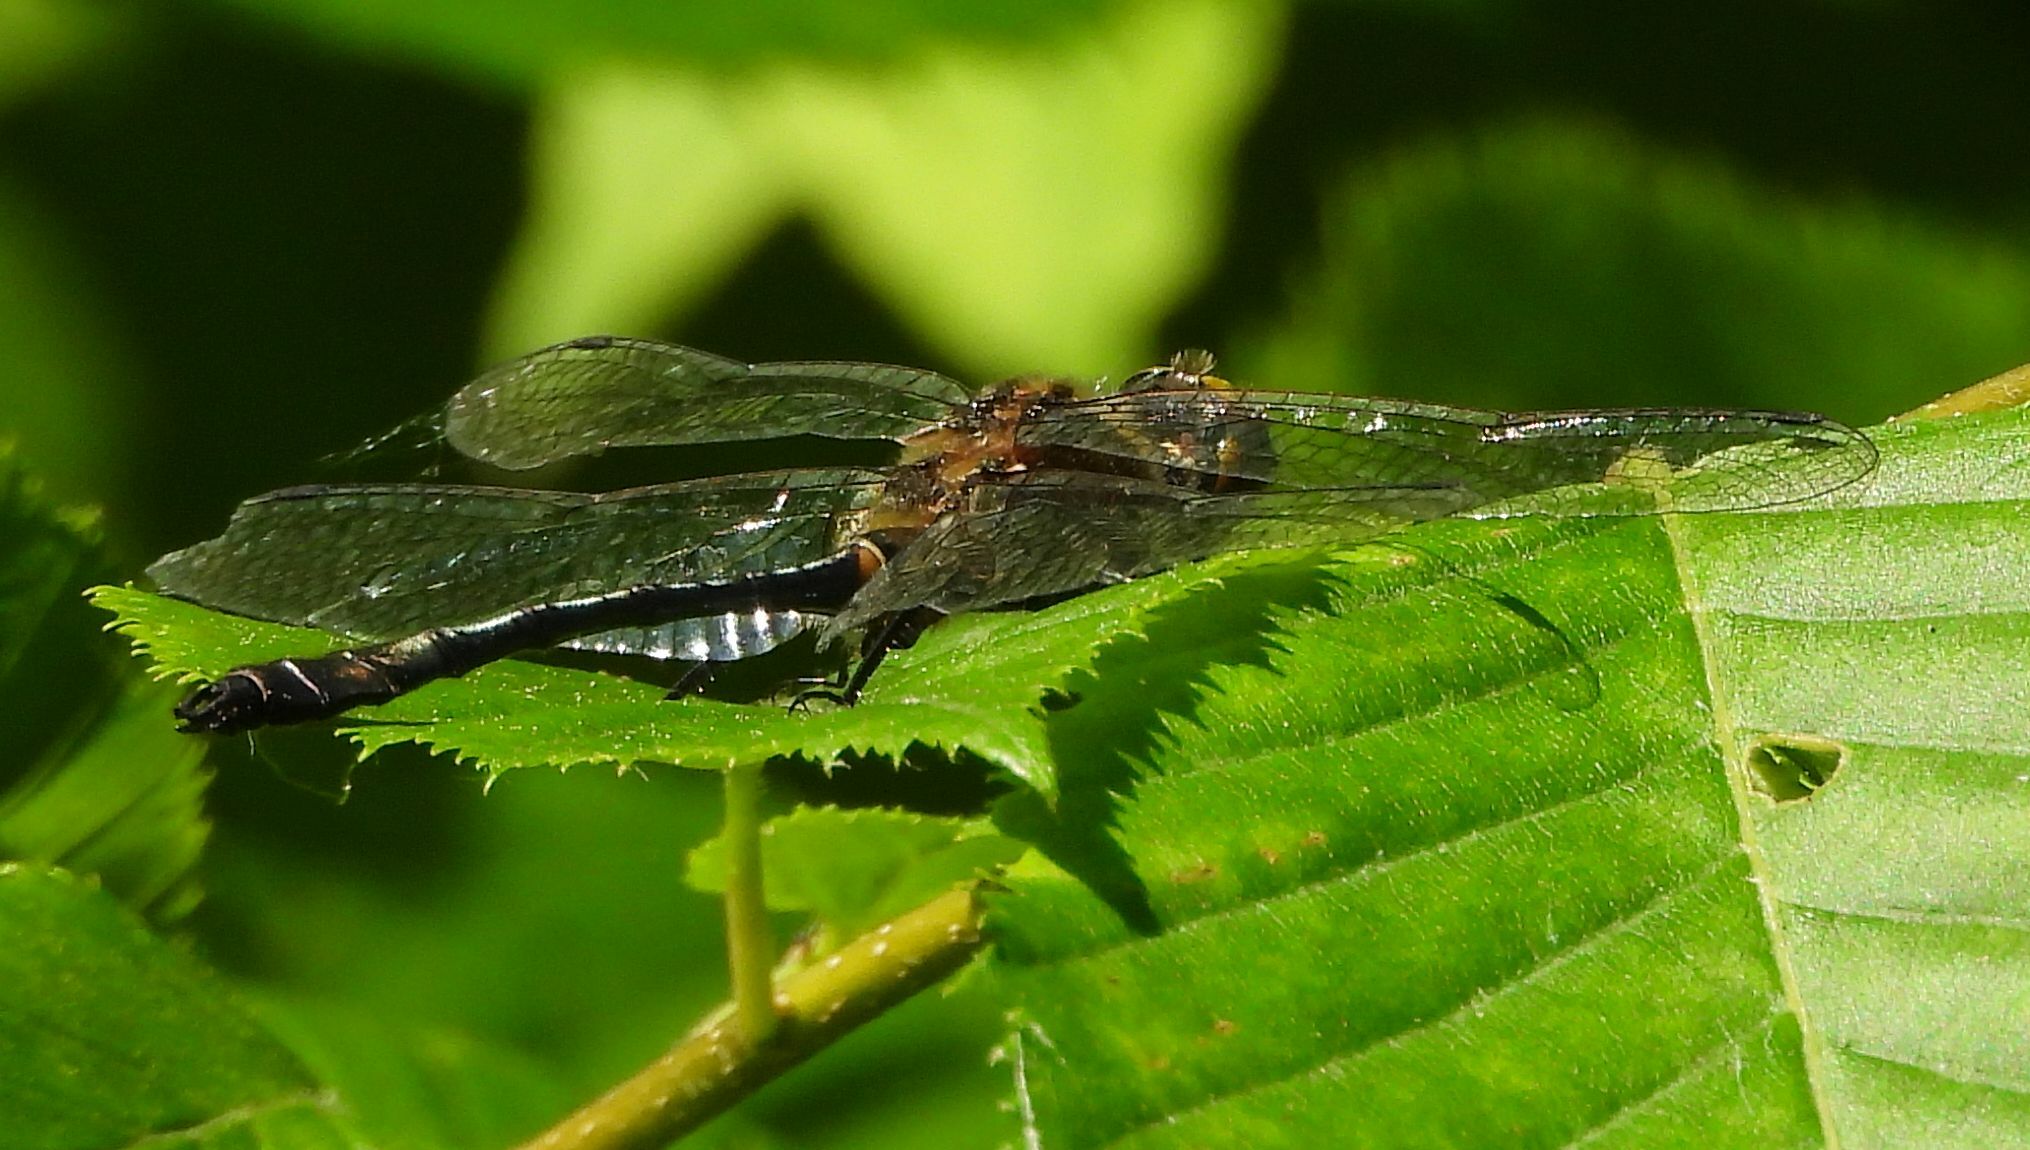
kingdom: Animalia
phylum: Arthropoda
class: Insecta
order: Odonata
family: Corduliidae
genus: Dorocordulia
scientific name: Dorocordulia libera
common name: Racket-tailed emerald
